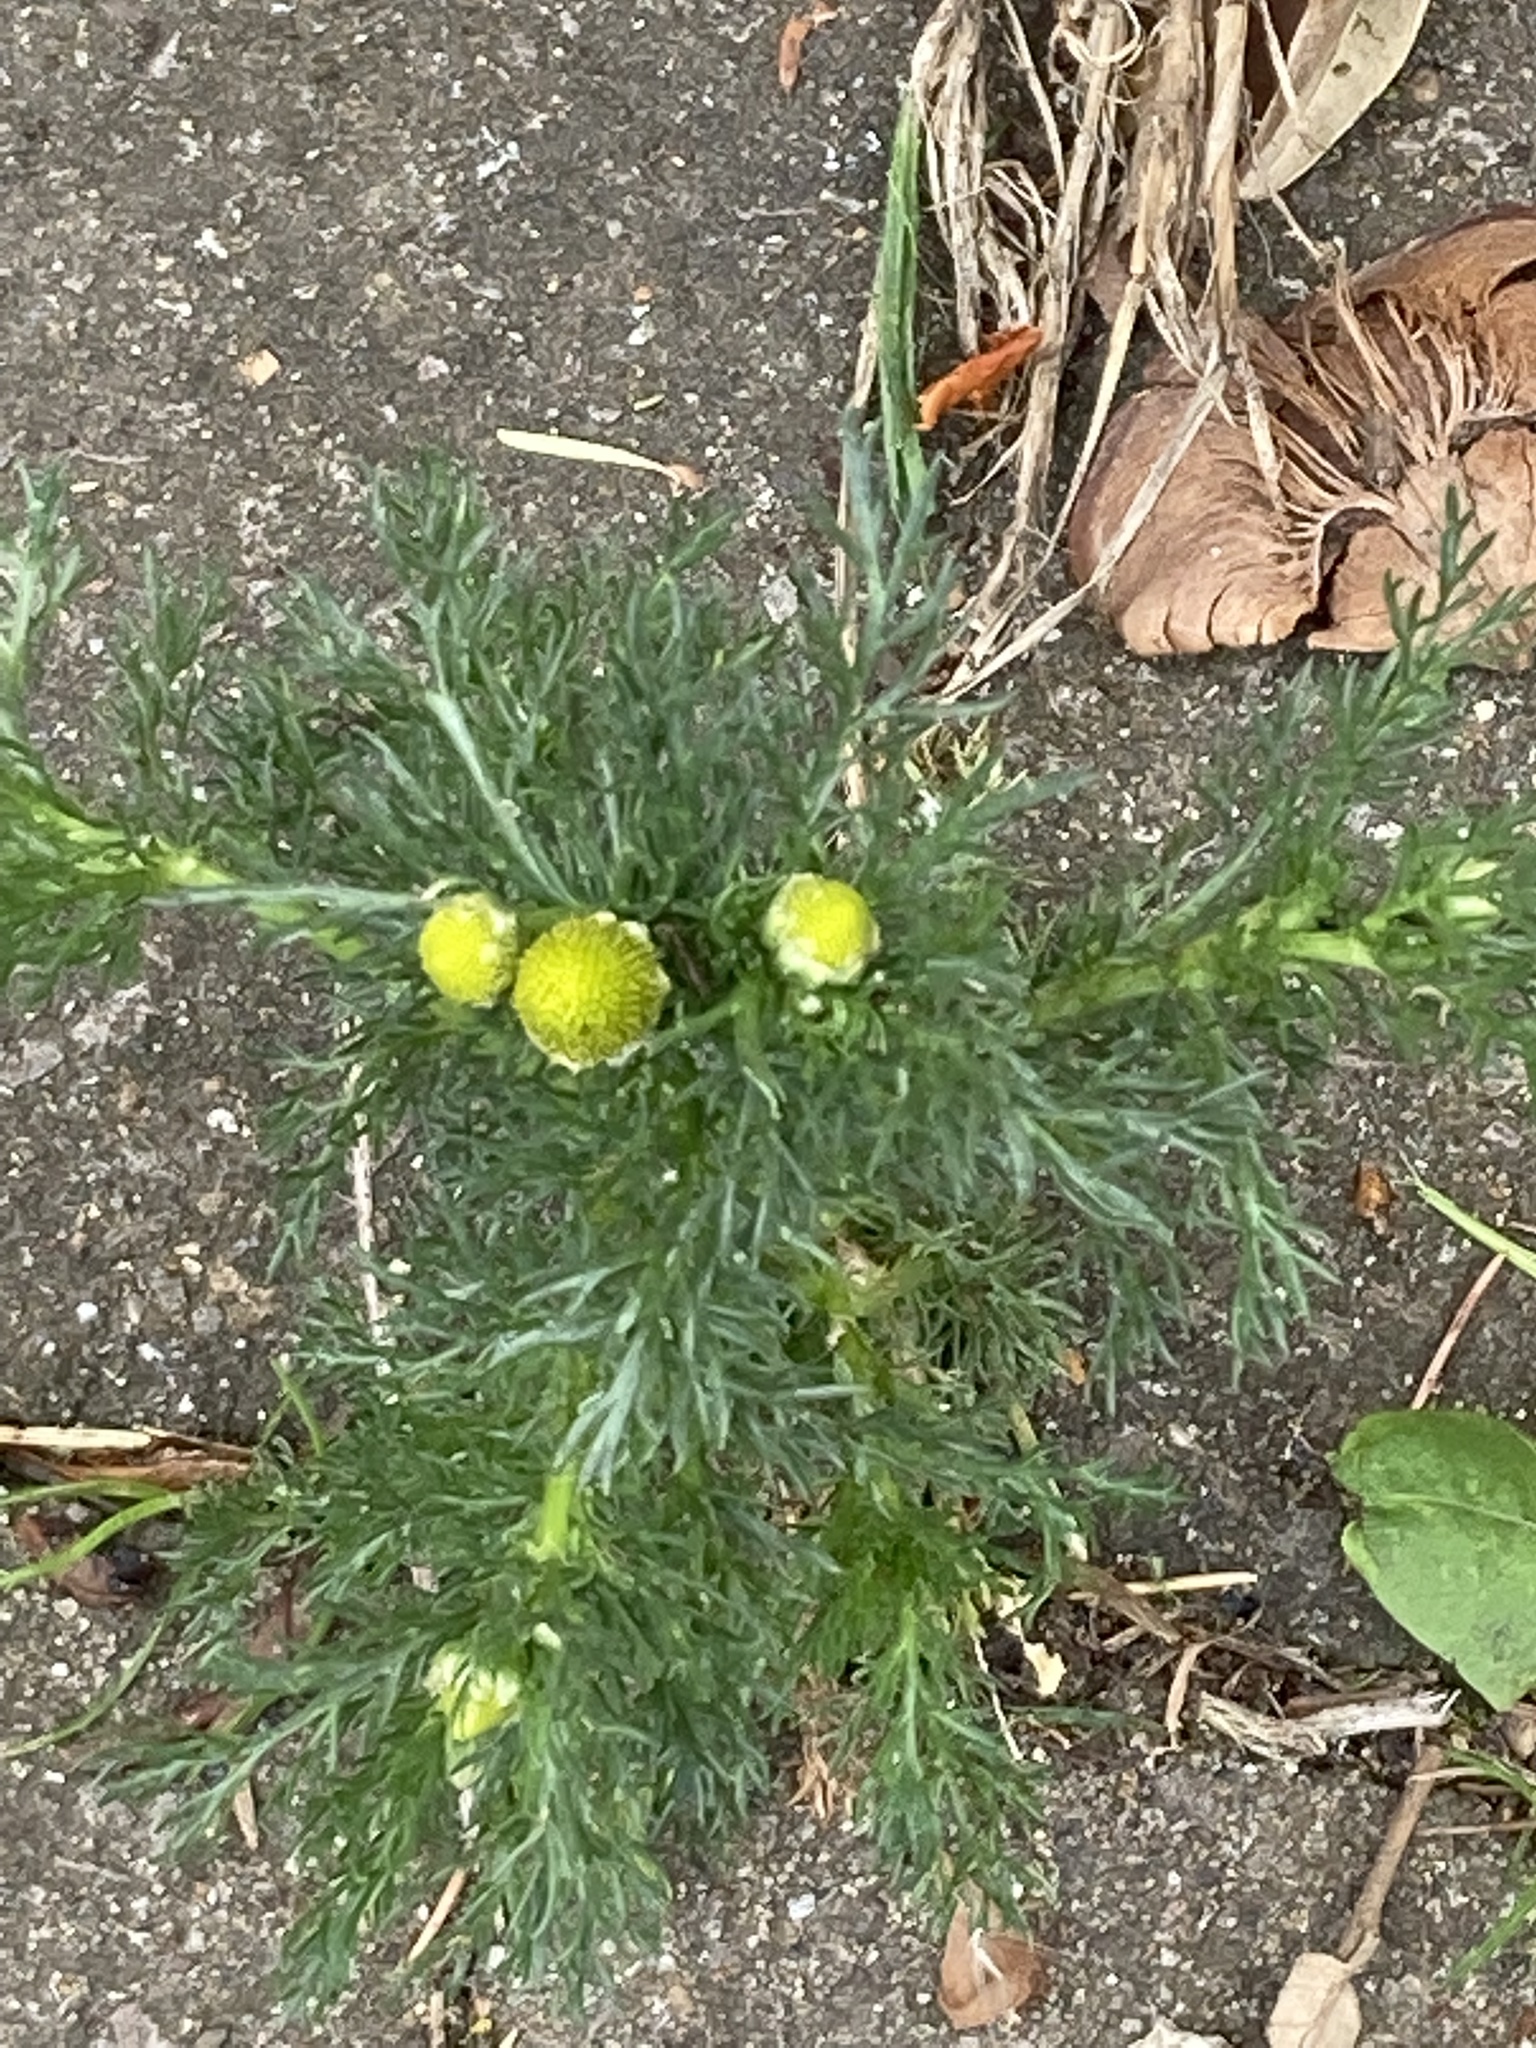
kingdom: Plantae
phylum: Tracheophyta
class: Magnoliopsida
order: Asterales
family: Asteraceae
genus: Matricaria
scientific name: Matricaria discoidea
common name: Disc mayweed
